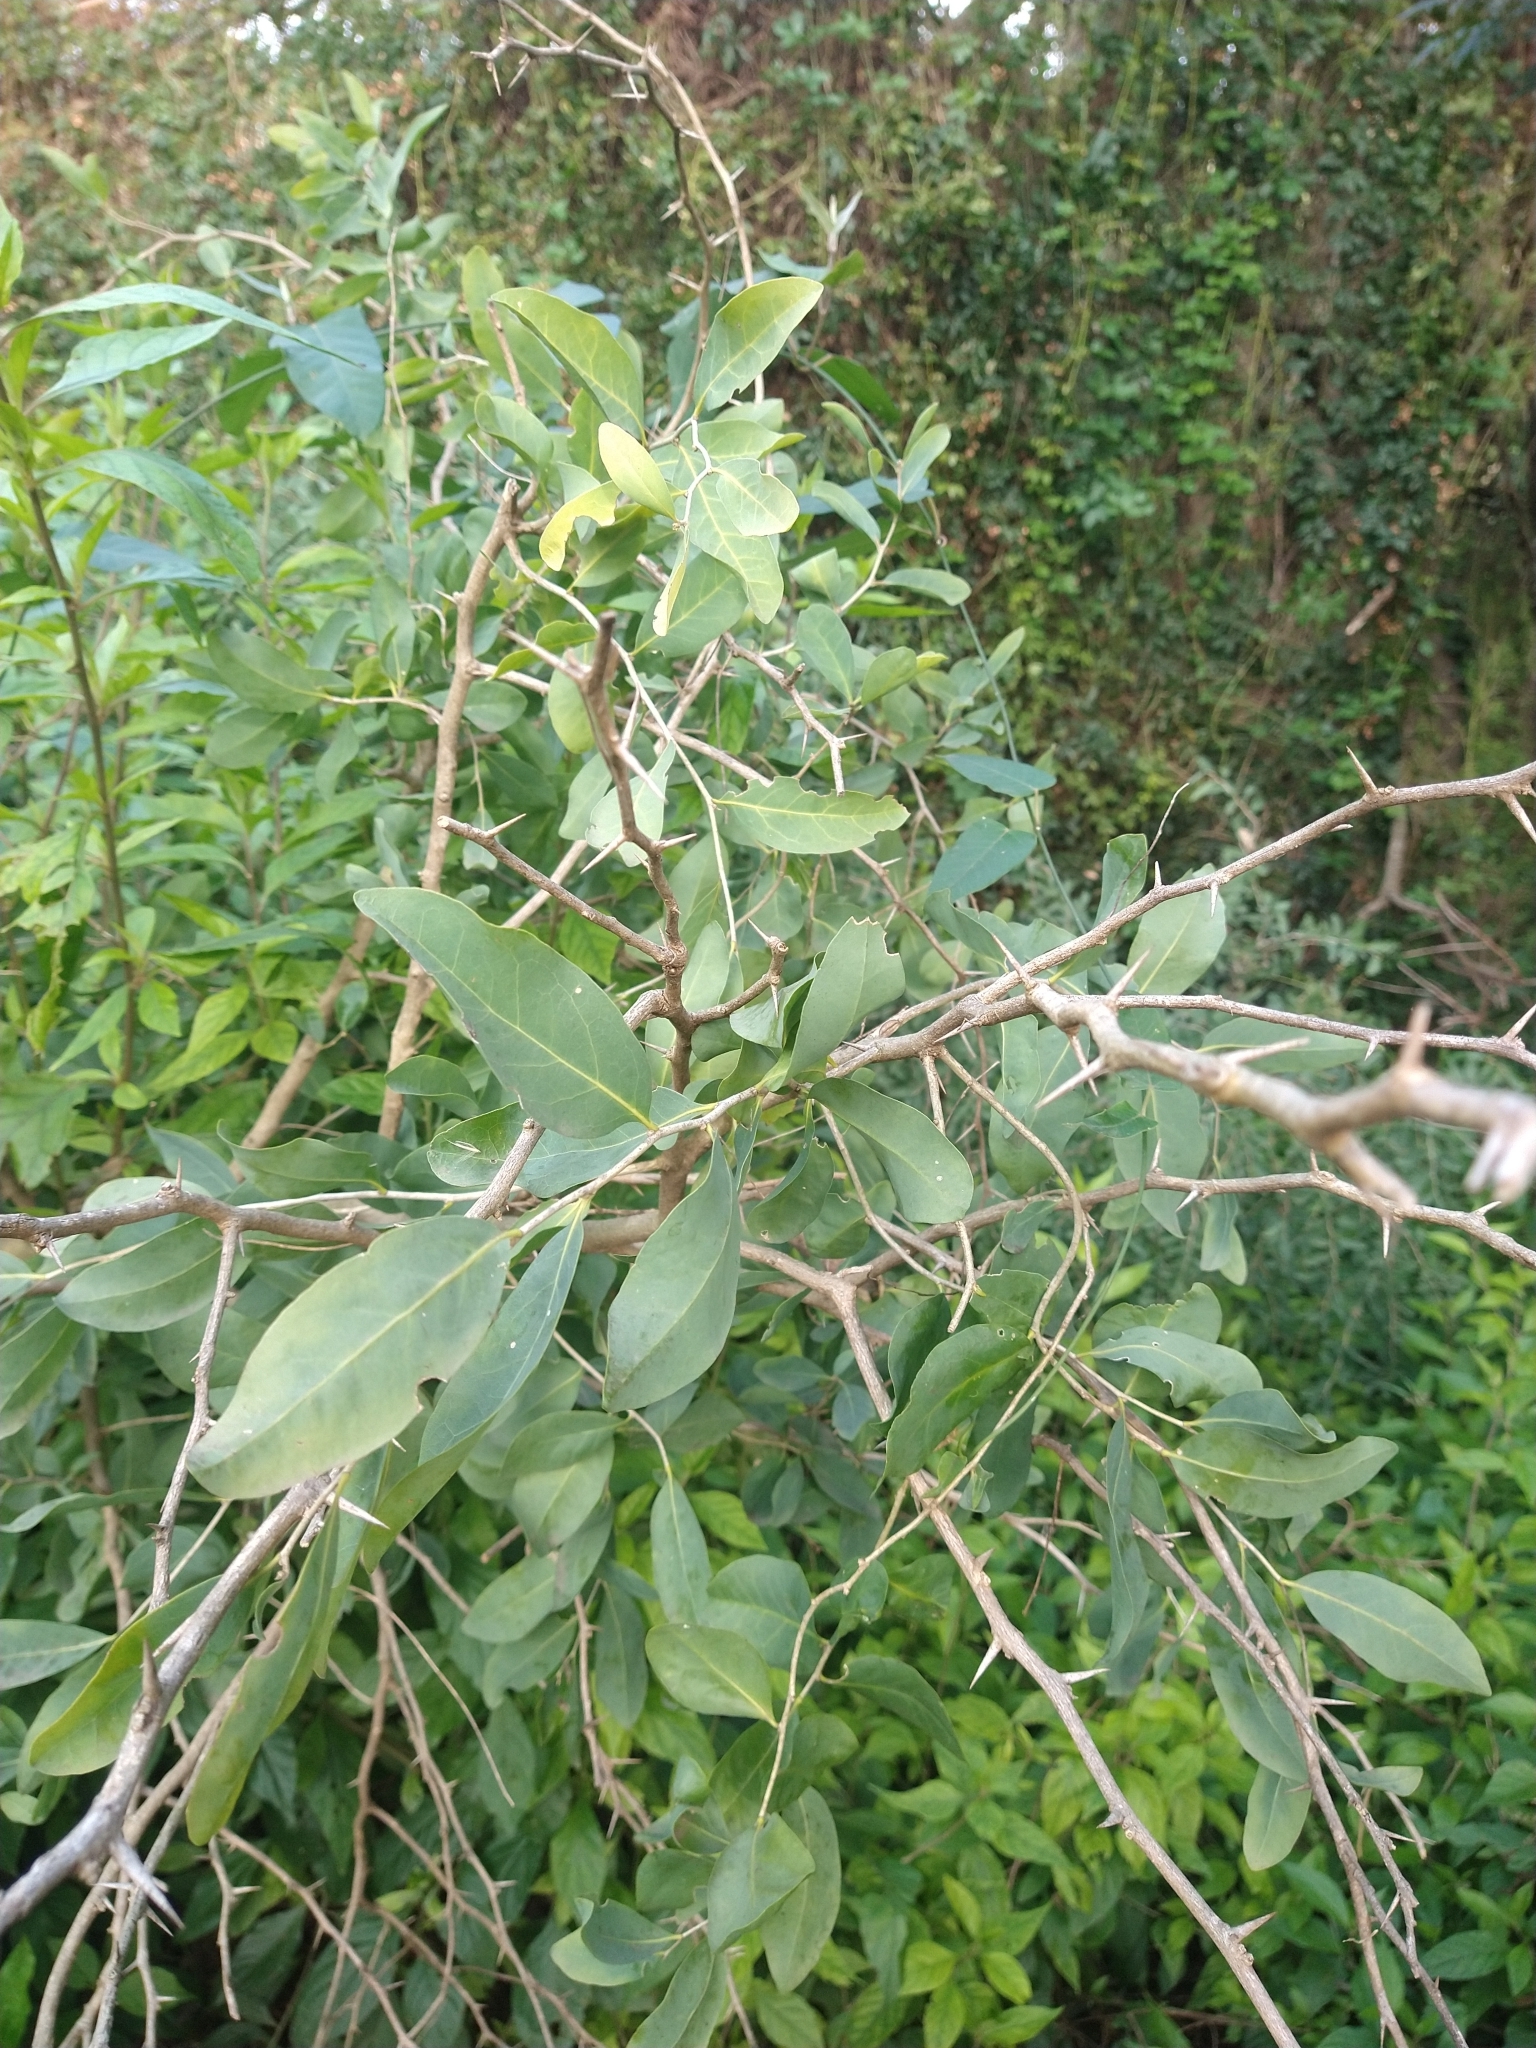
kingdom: Plantae
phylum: Tracheophyta
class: Magnoliopsida
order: Santalales
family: Cervantesiaceae
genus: Acanthosyris
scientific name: Acanthosyris spinescens
